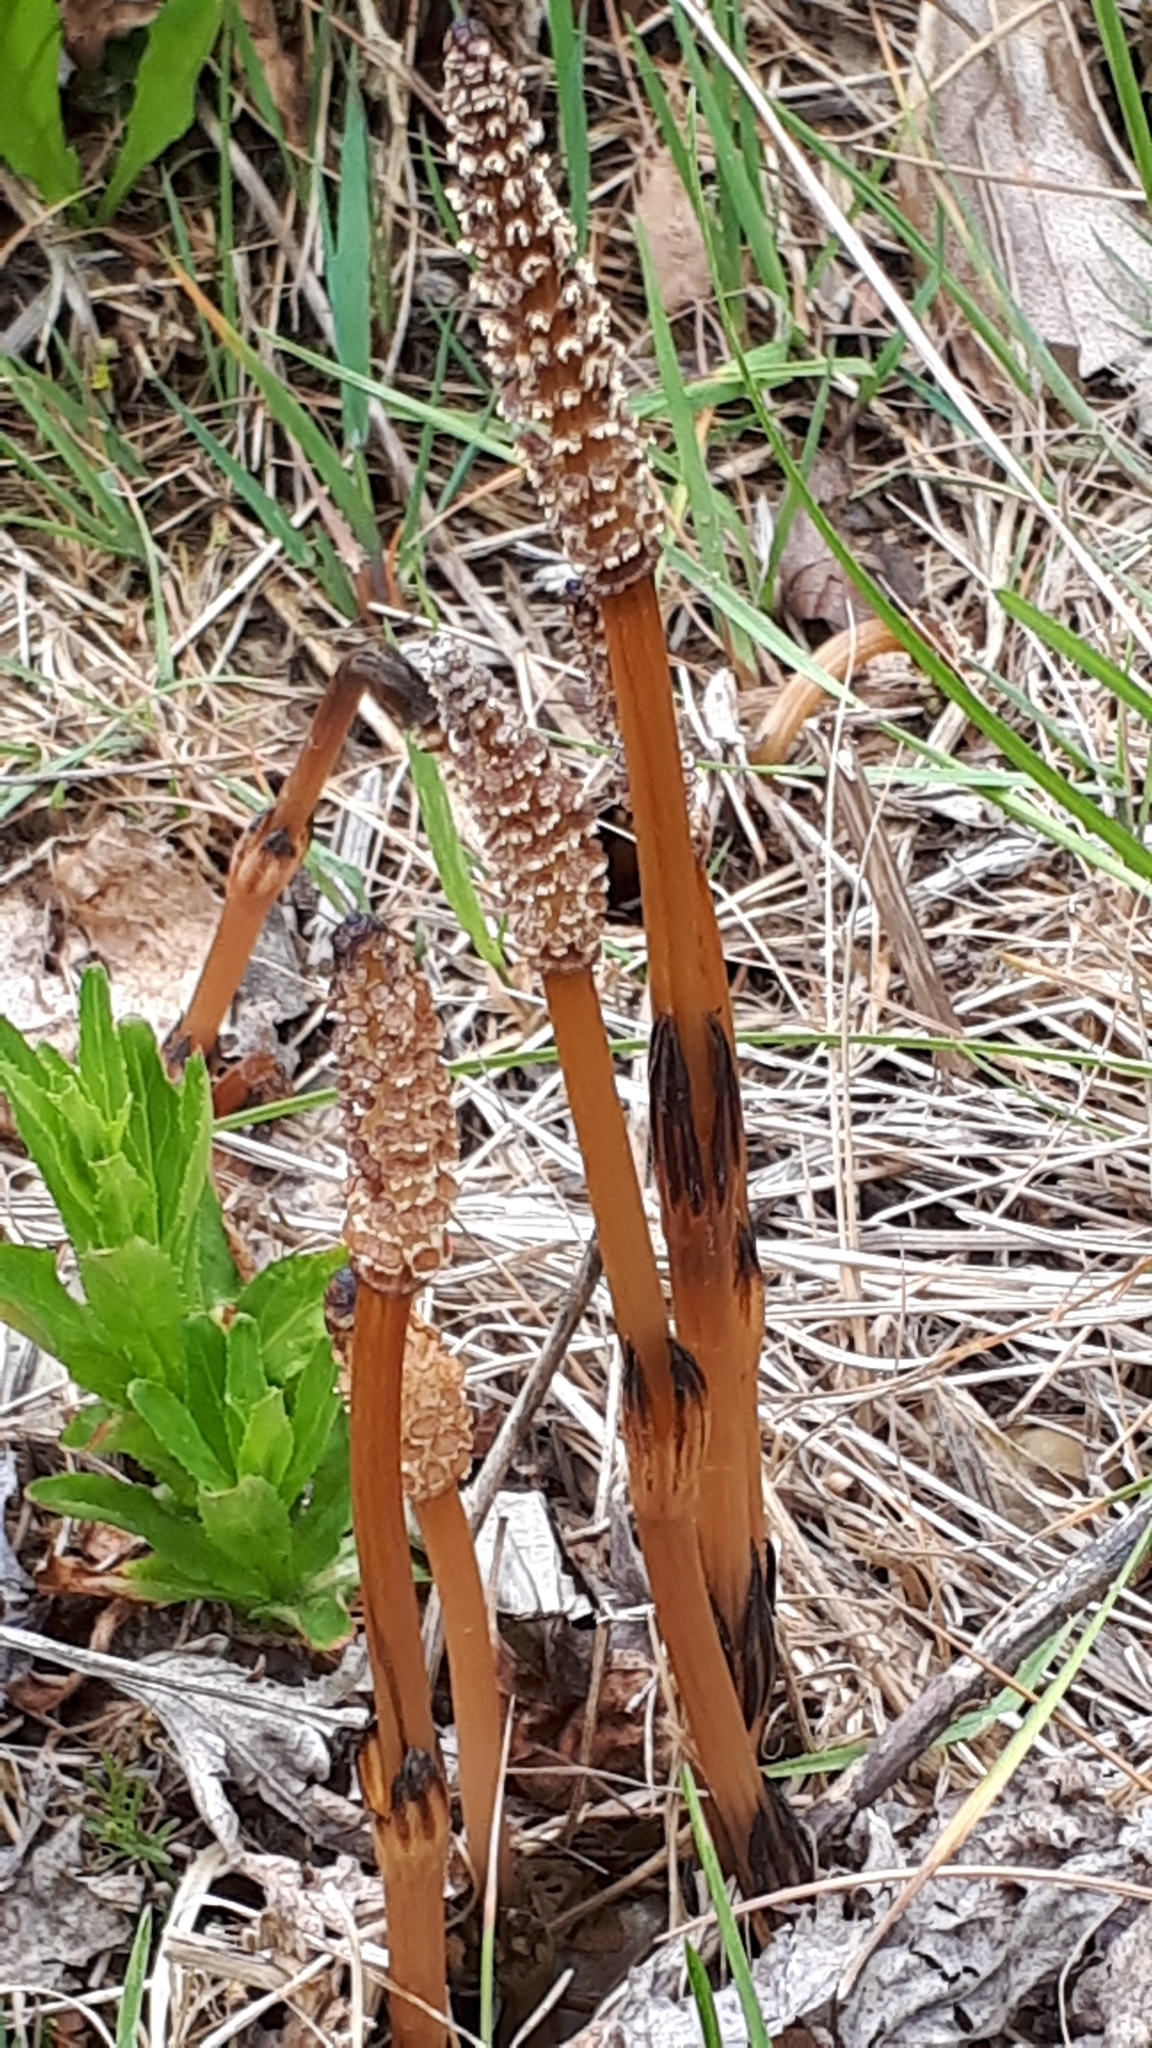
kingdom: Plantae
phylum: Tracheophyta
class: Polypodiopsida
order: Equisetales
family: Equisetaceae
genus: Equisetum
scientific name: Equisetum arvense
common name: Field horsetail
